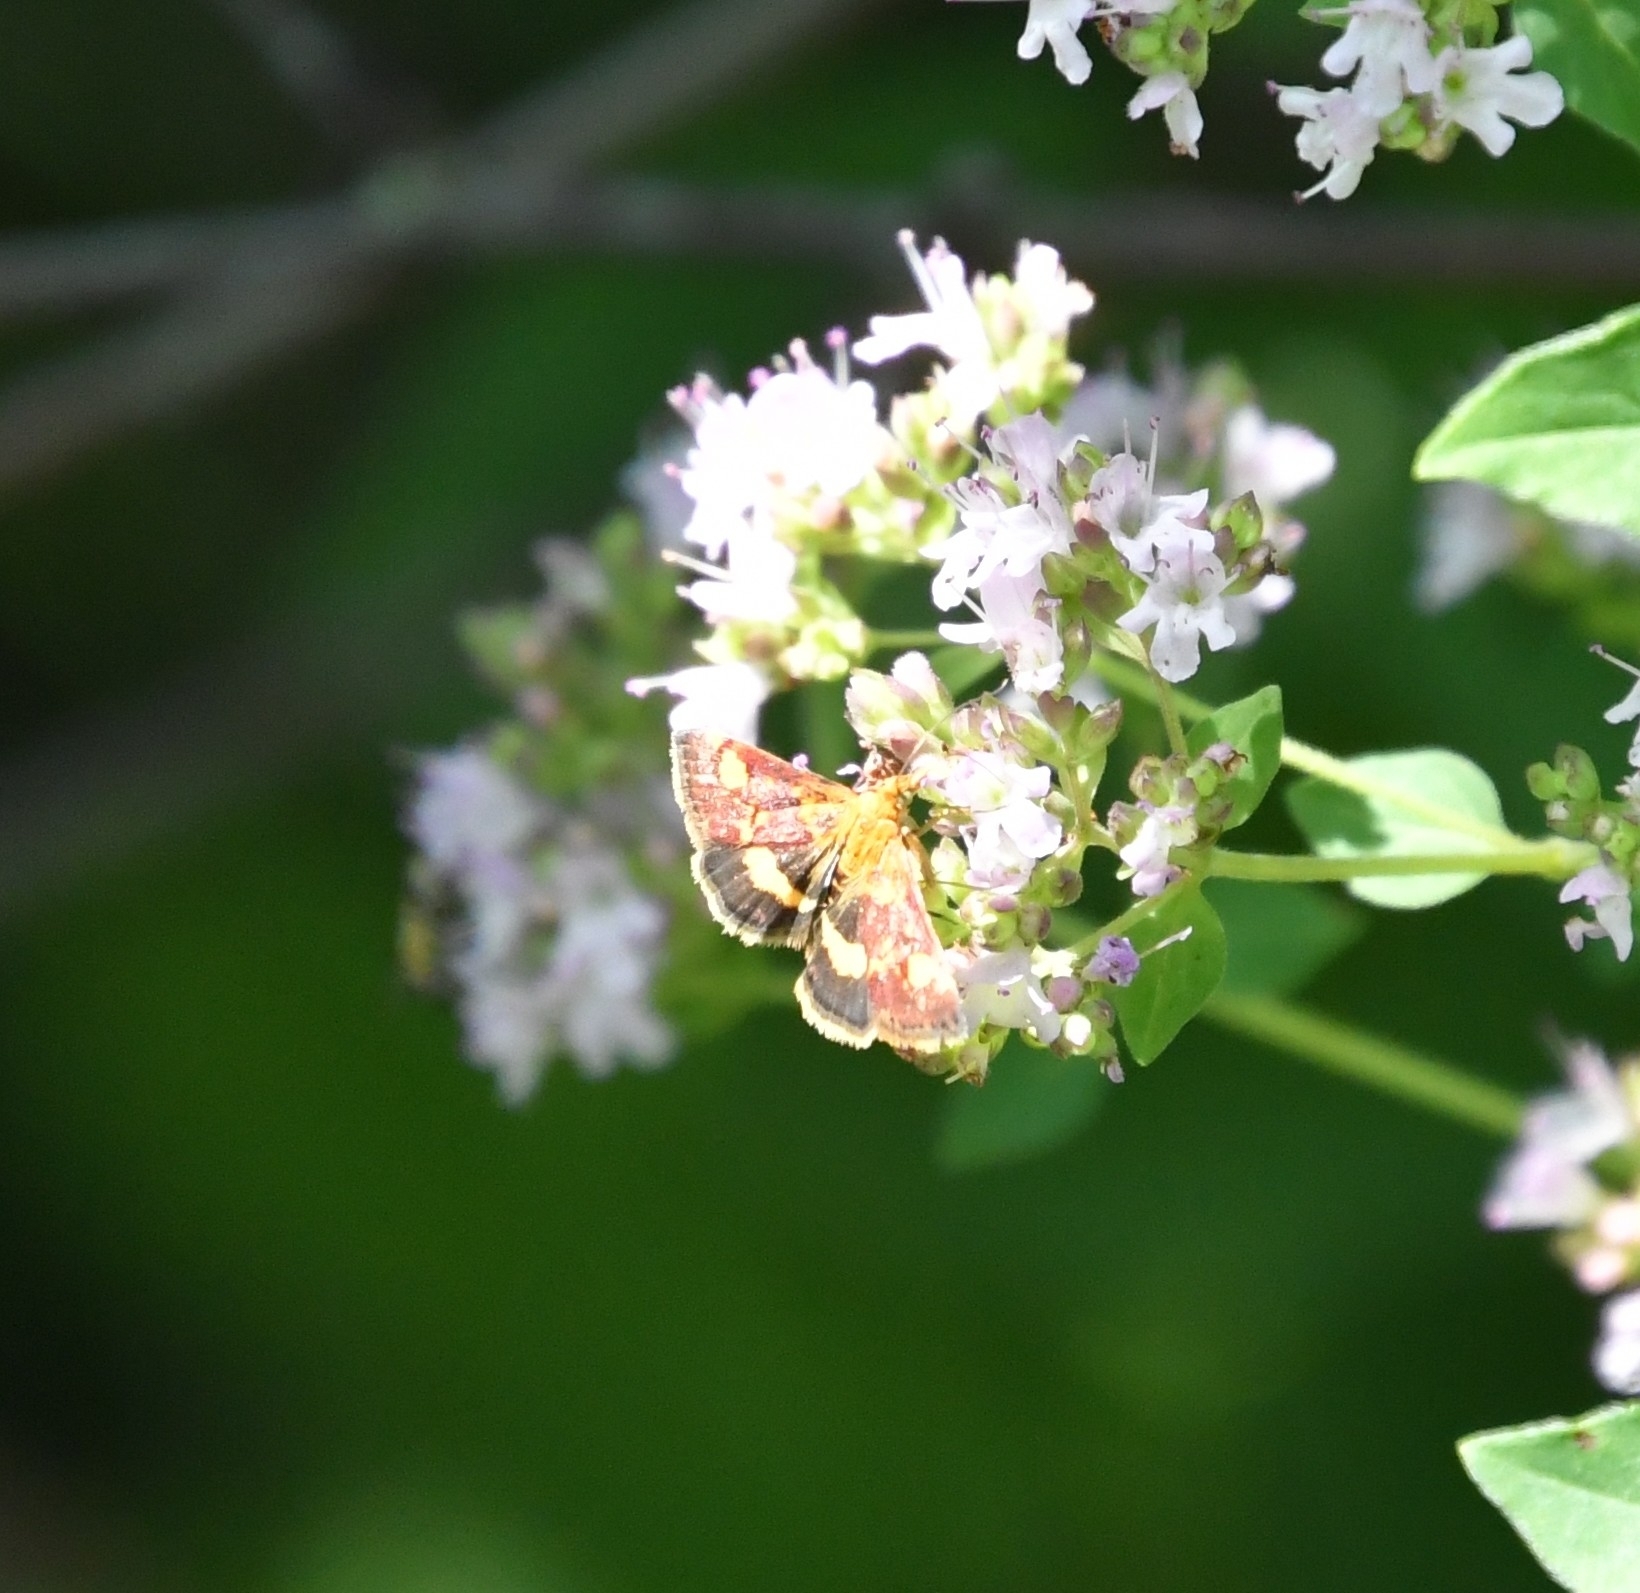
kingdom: Animalia
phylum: Arthropoda
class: Insecta
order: Lepidoptera
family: Crambidae
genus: Pyrausta
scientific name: Pyrausta aurata
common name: Small purple & gold
